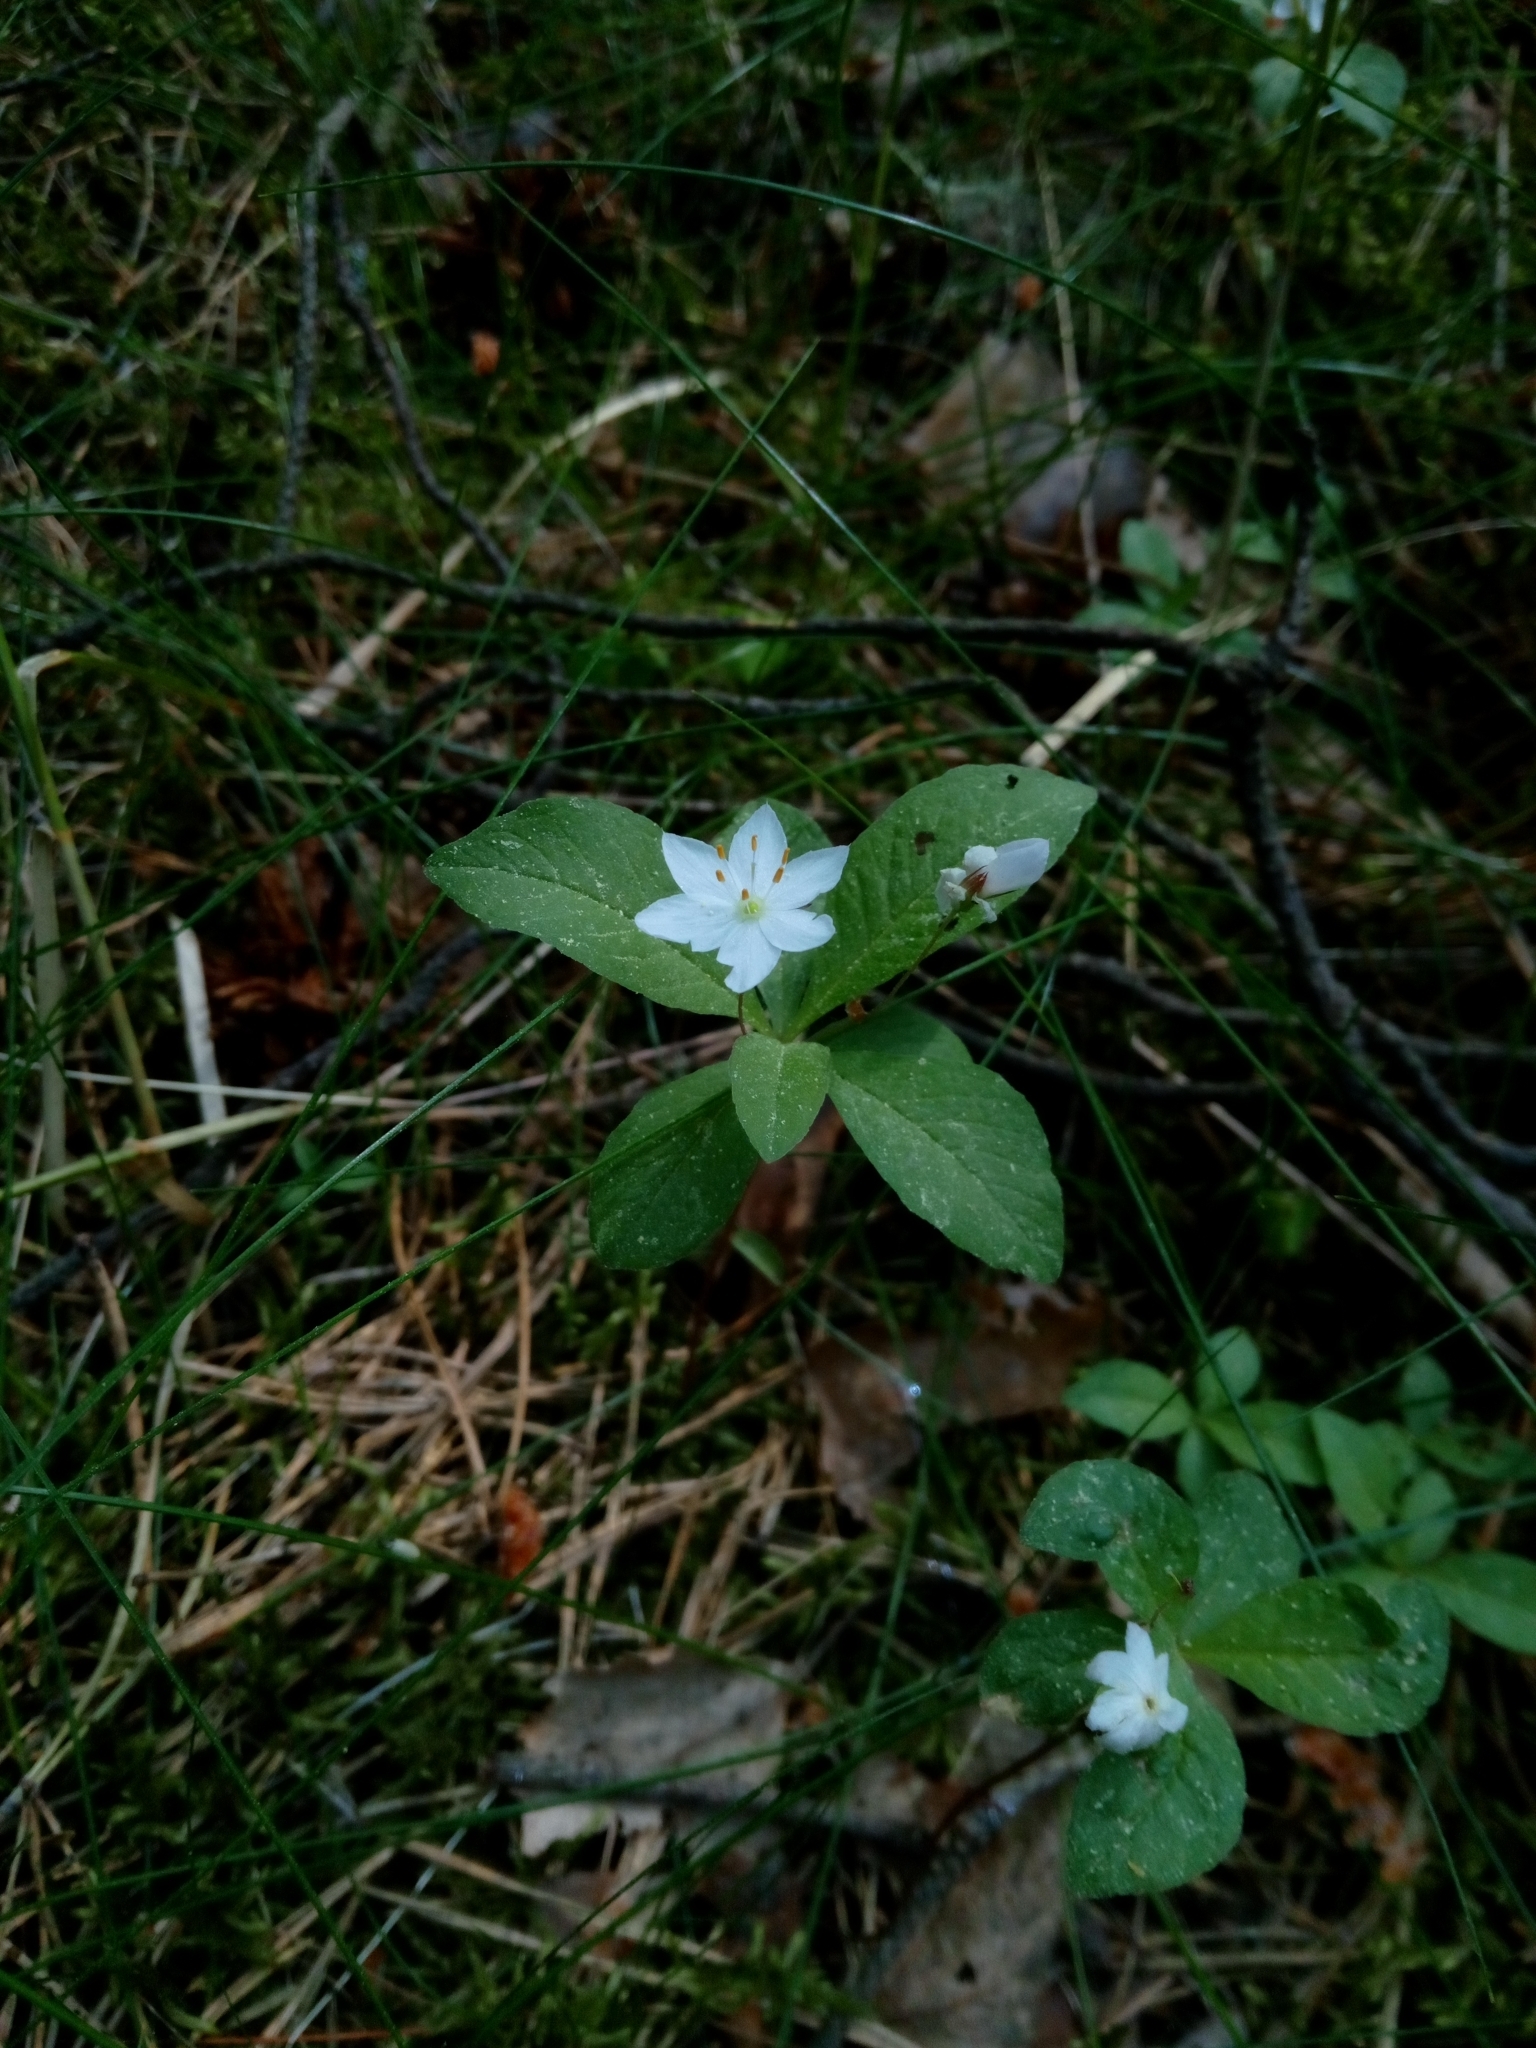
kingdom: Plantae
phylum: Tracheophyta
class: Magnoliopsida
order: Ericales
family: Primulaceae
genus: Lysimachia
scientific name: Lysimachia europaea
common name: Arctic starflower
